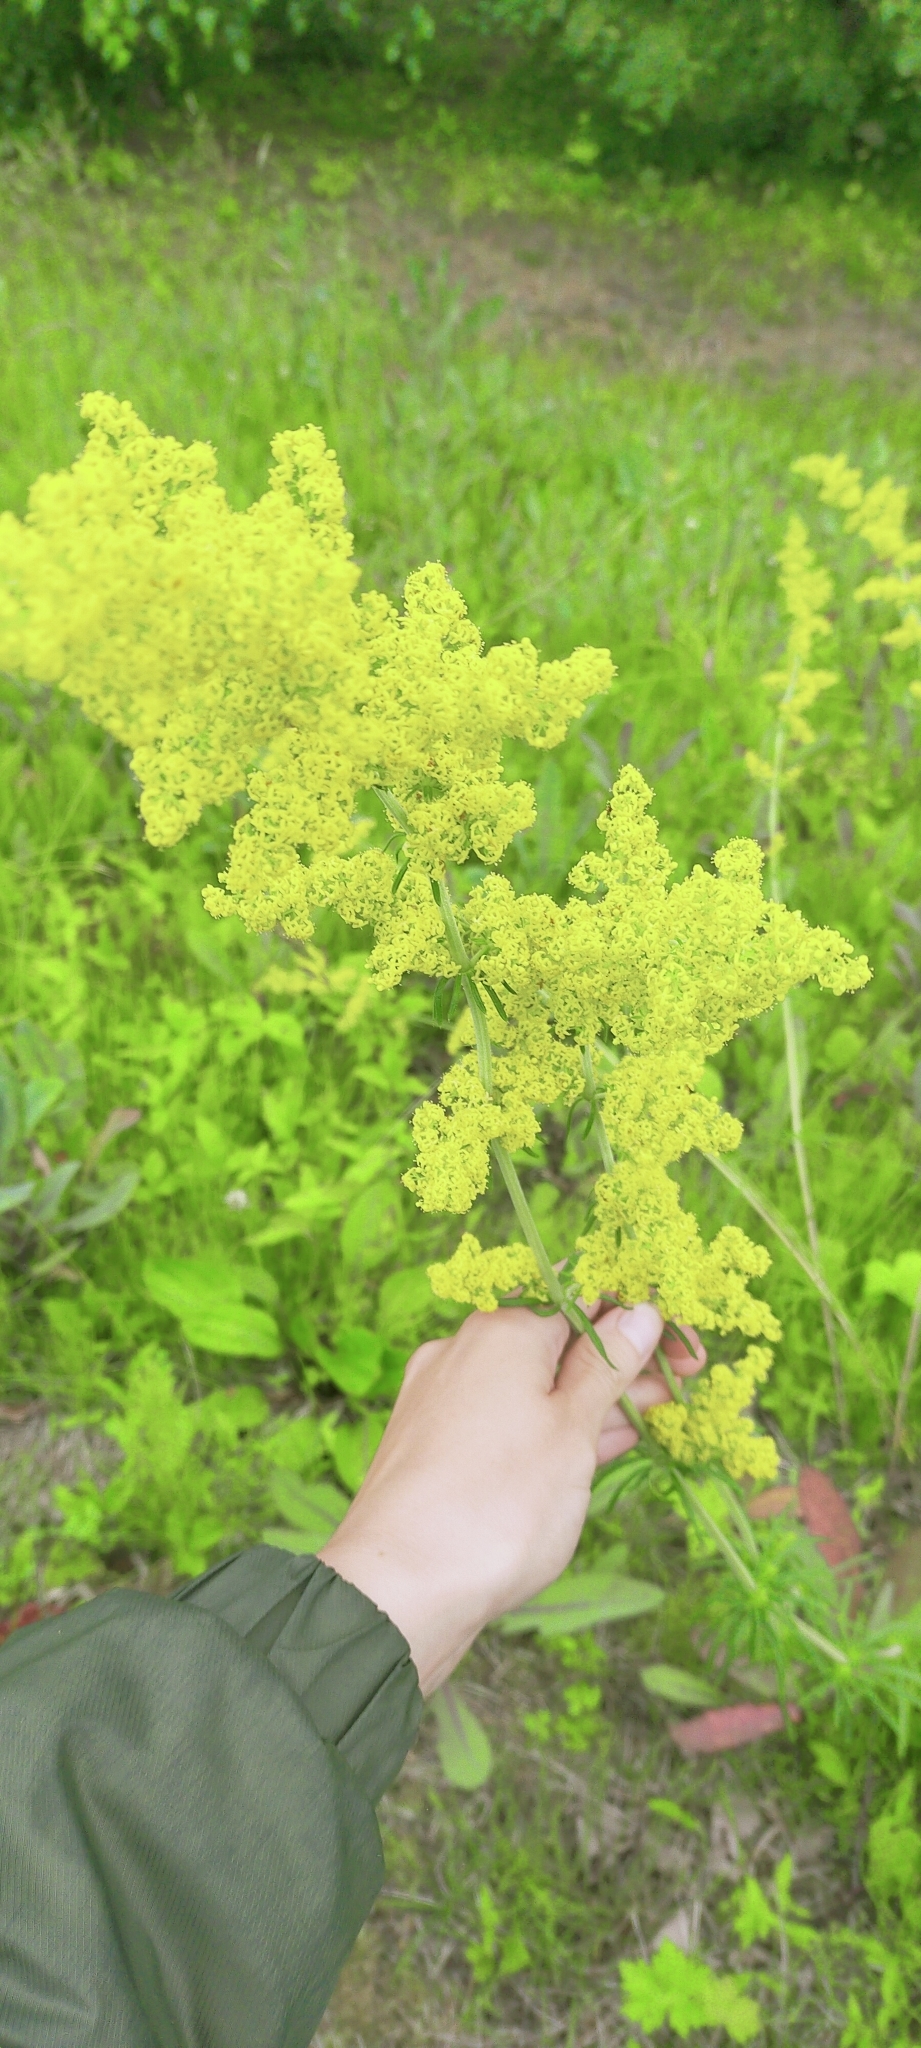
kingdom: Plantae
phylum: Tracheophyta
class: Magnoliopsida
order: Gentianales
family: Rubiaceae
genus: Galium
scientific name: Galium verum
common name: Lady's bedstraw
